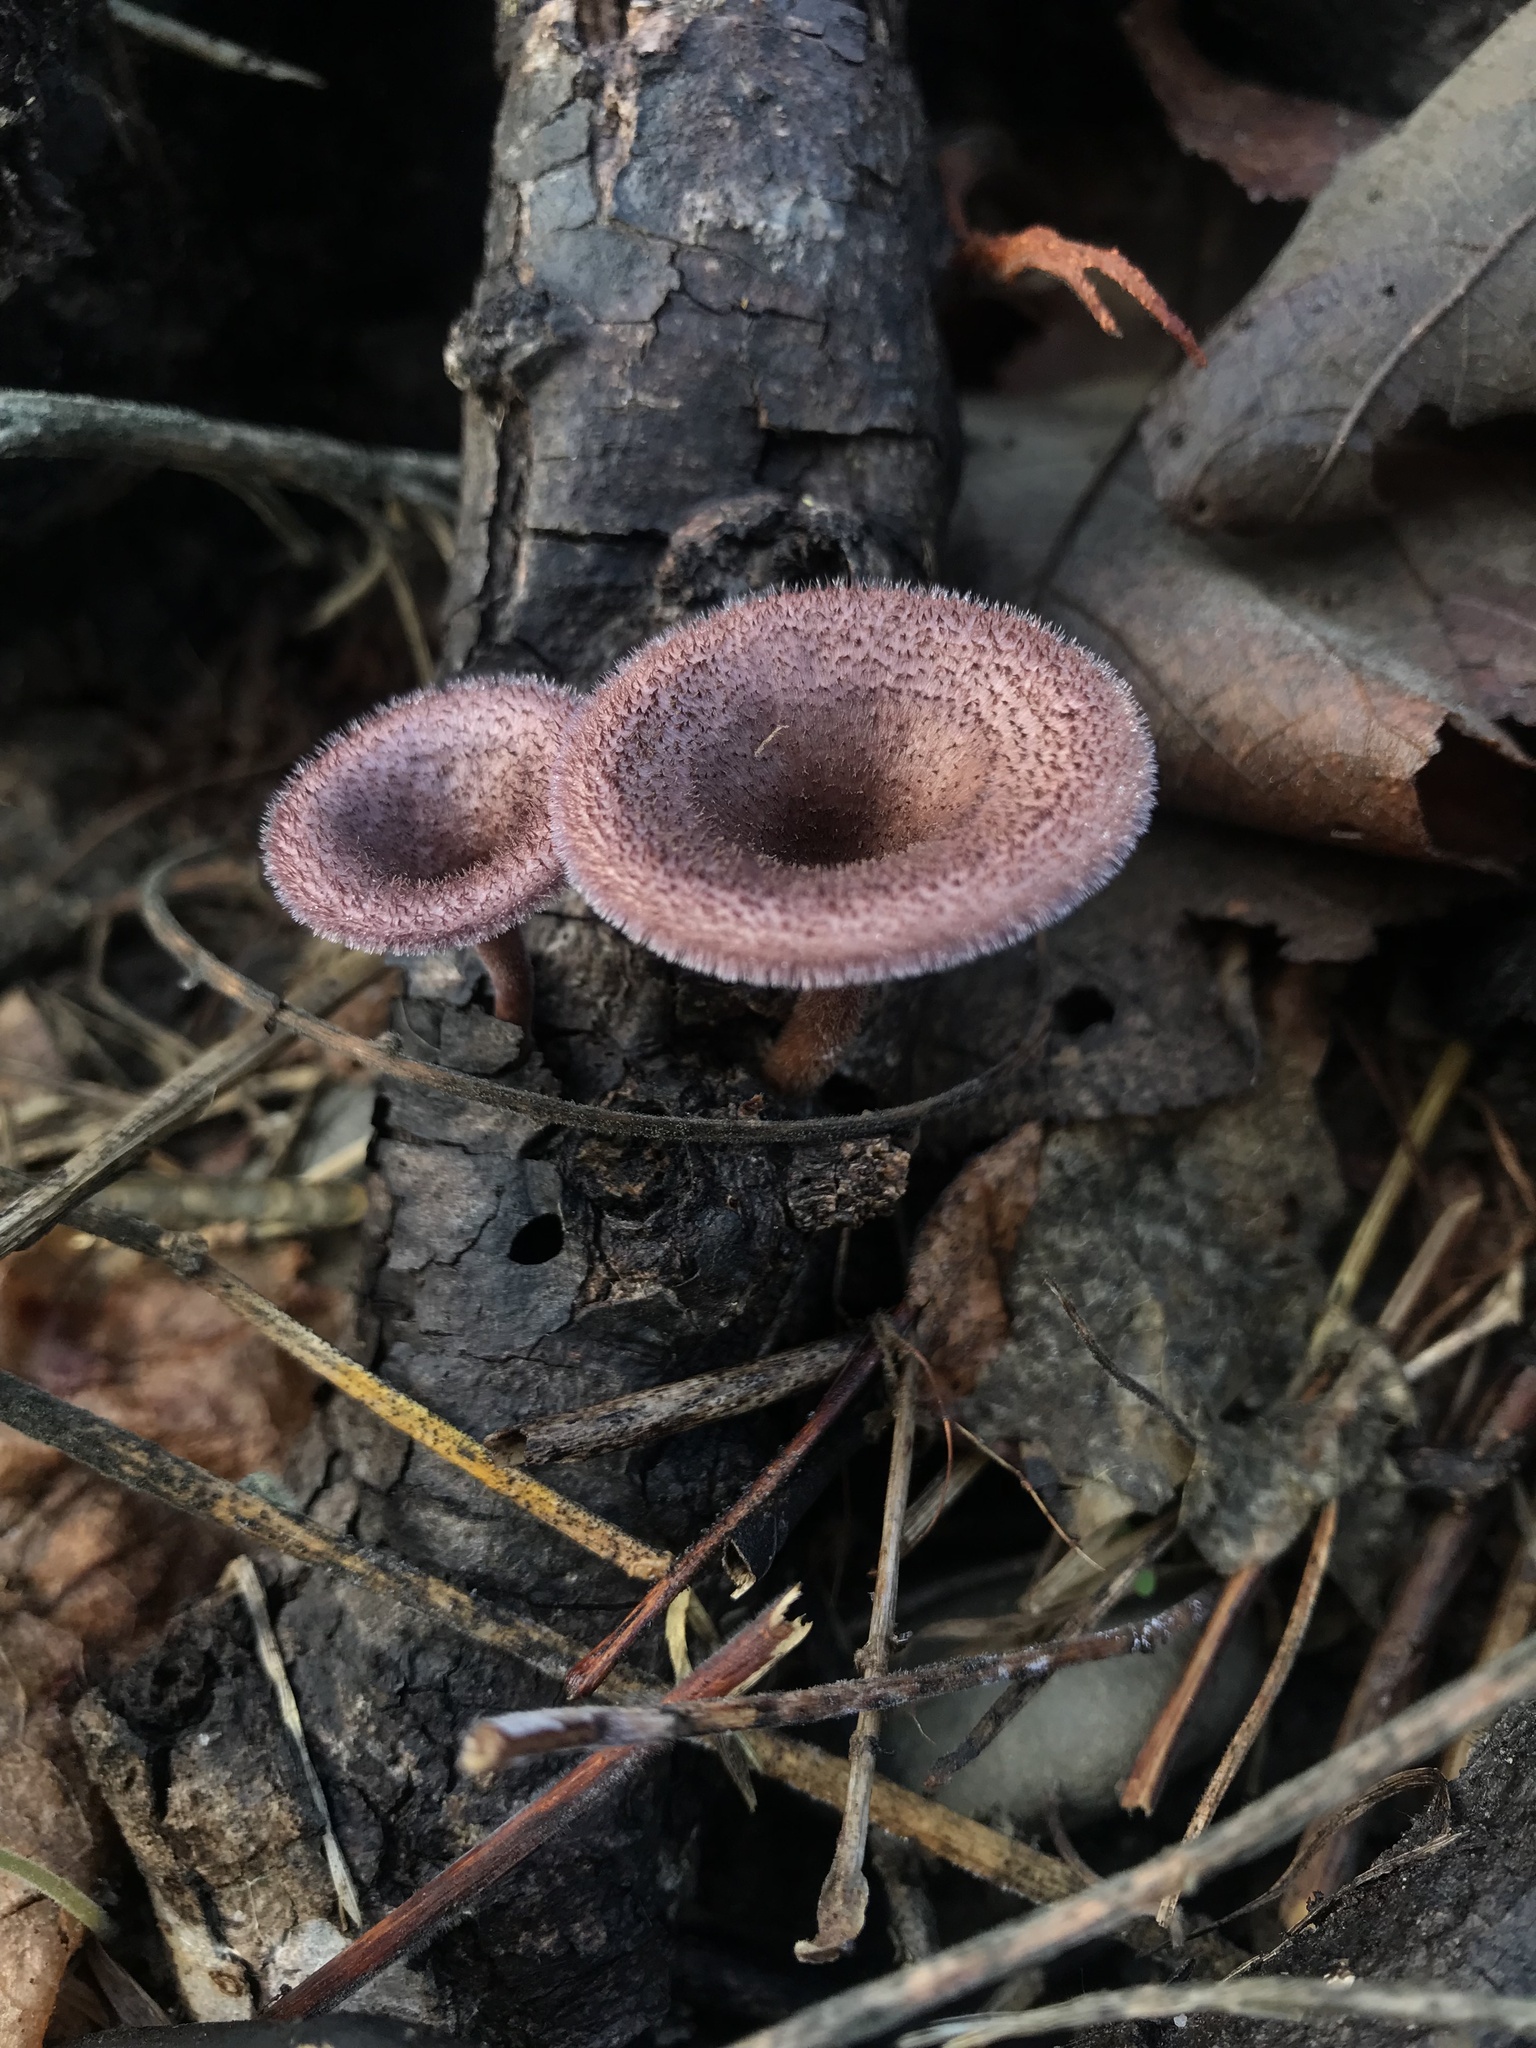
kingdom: Fungi
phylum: Basidiomycota
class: Agaricomycetes
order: Polyporales
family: Panaceae
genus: Panus
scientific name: Panus strigellus
